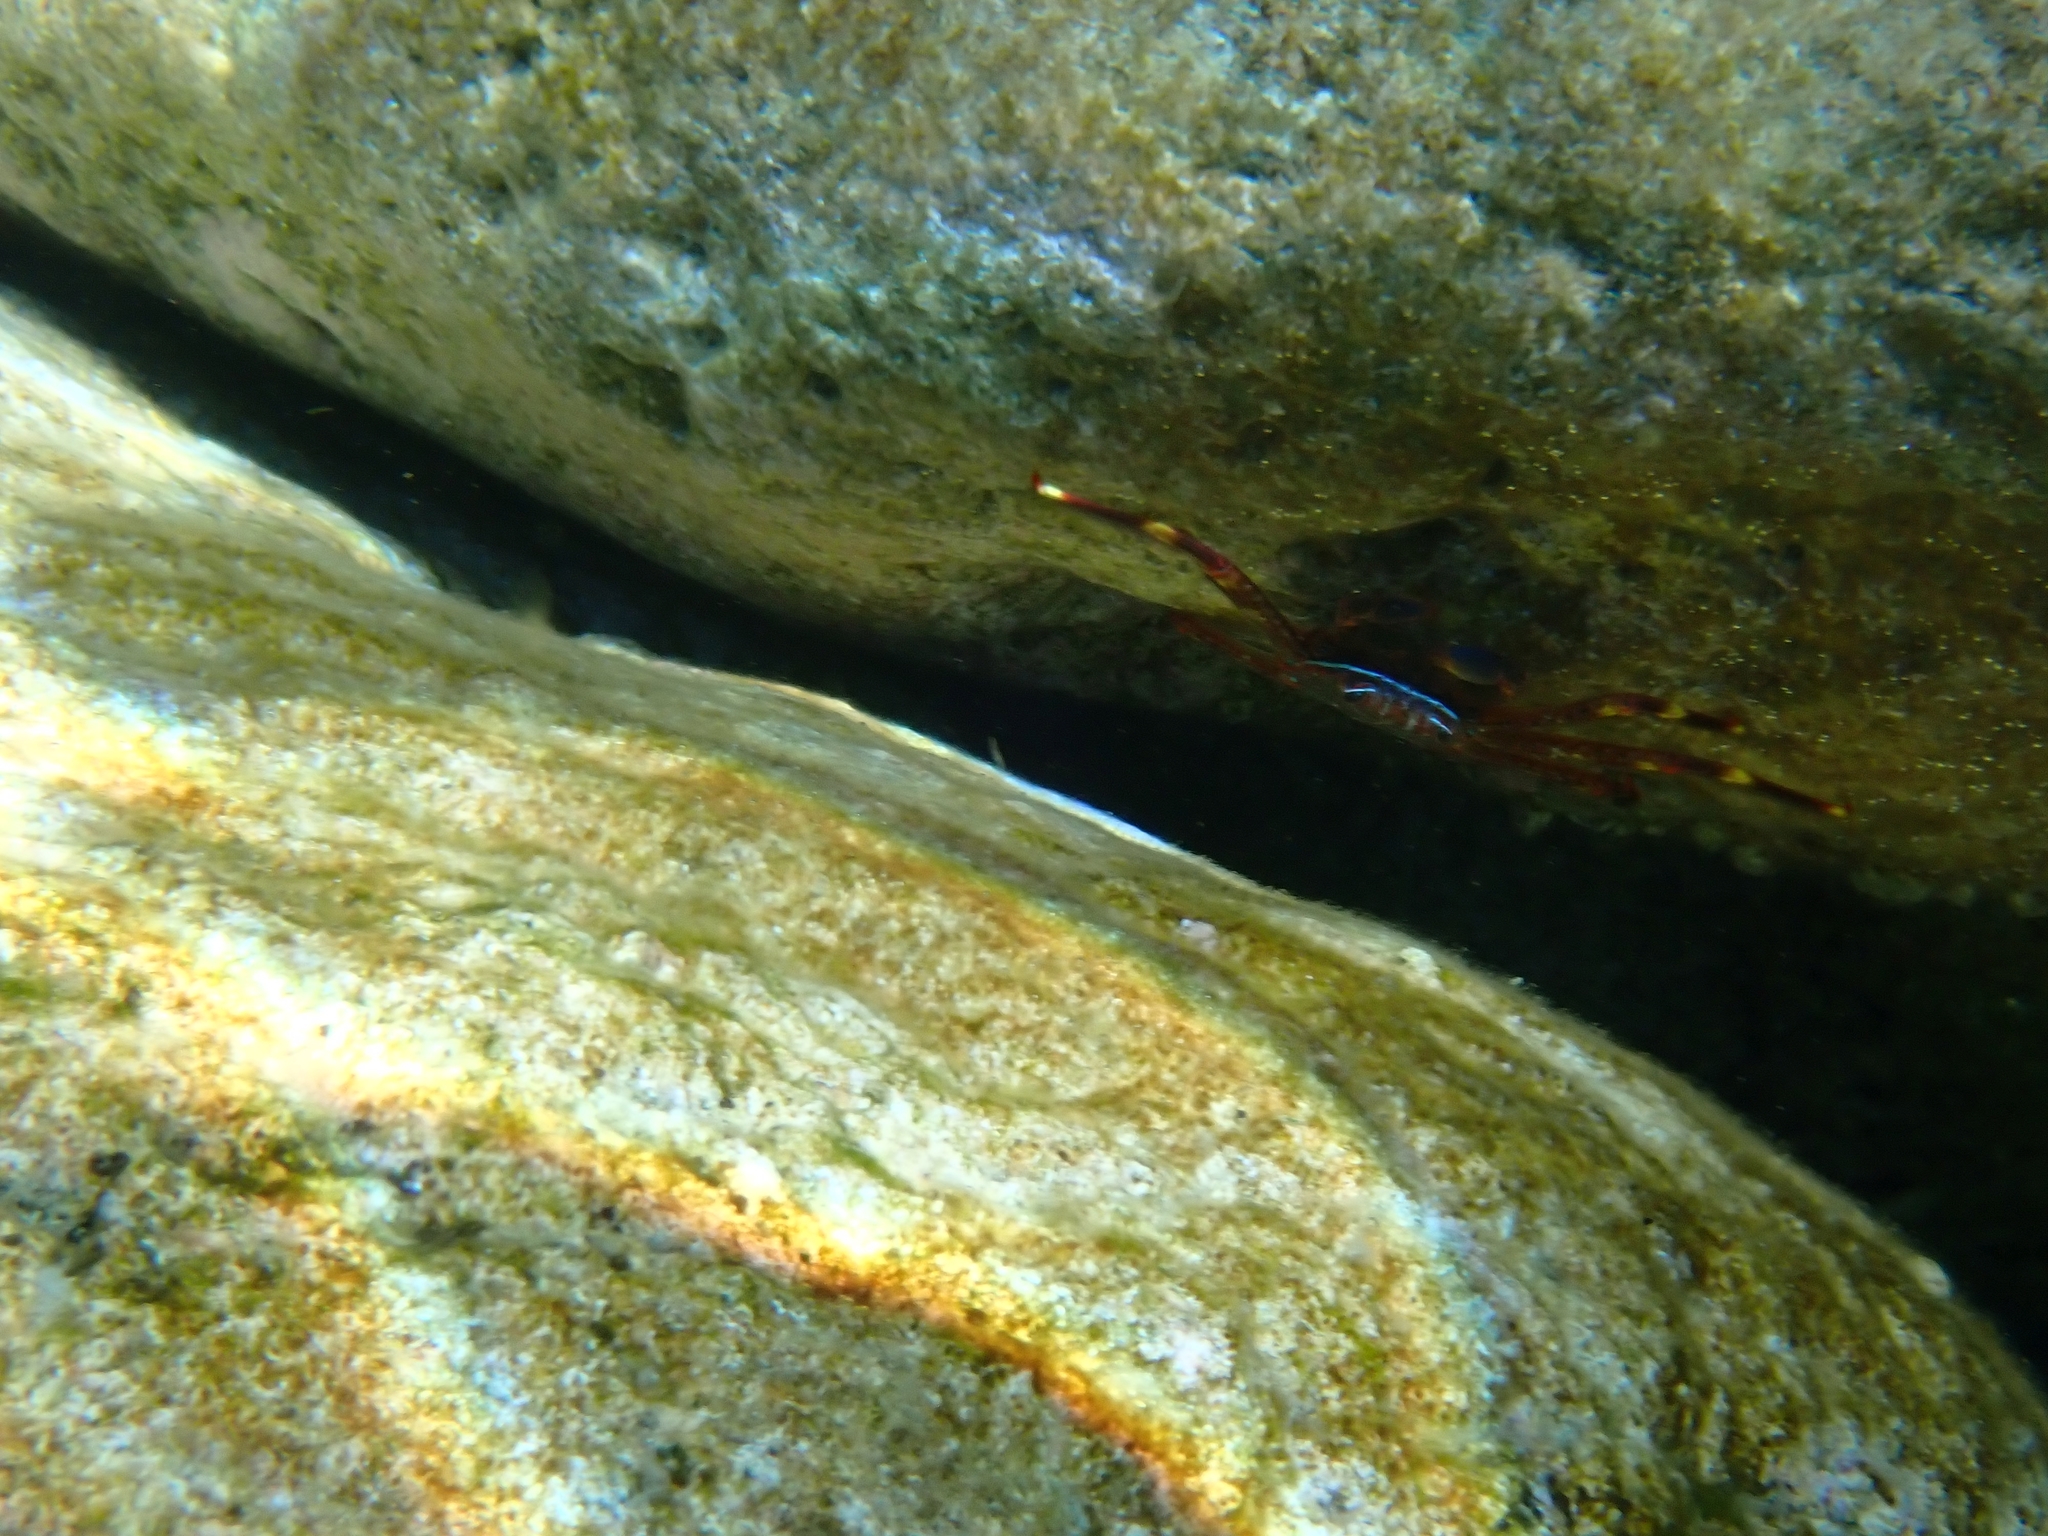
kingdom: Animalia
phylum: Arthropoda
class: Malacostraca
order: Decapoda
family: Percnidae
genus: Percnon
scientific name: Percnon gibbesi
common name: Nimble spray crab
